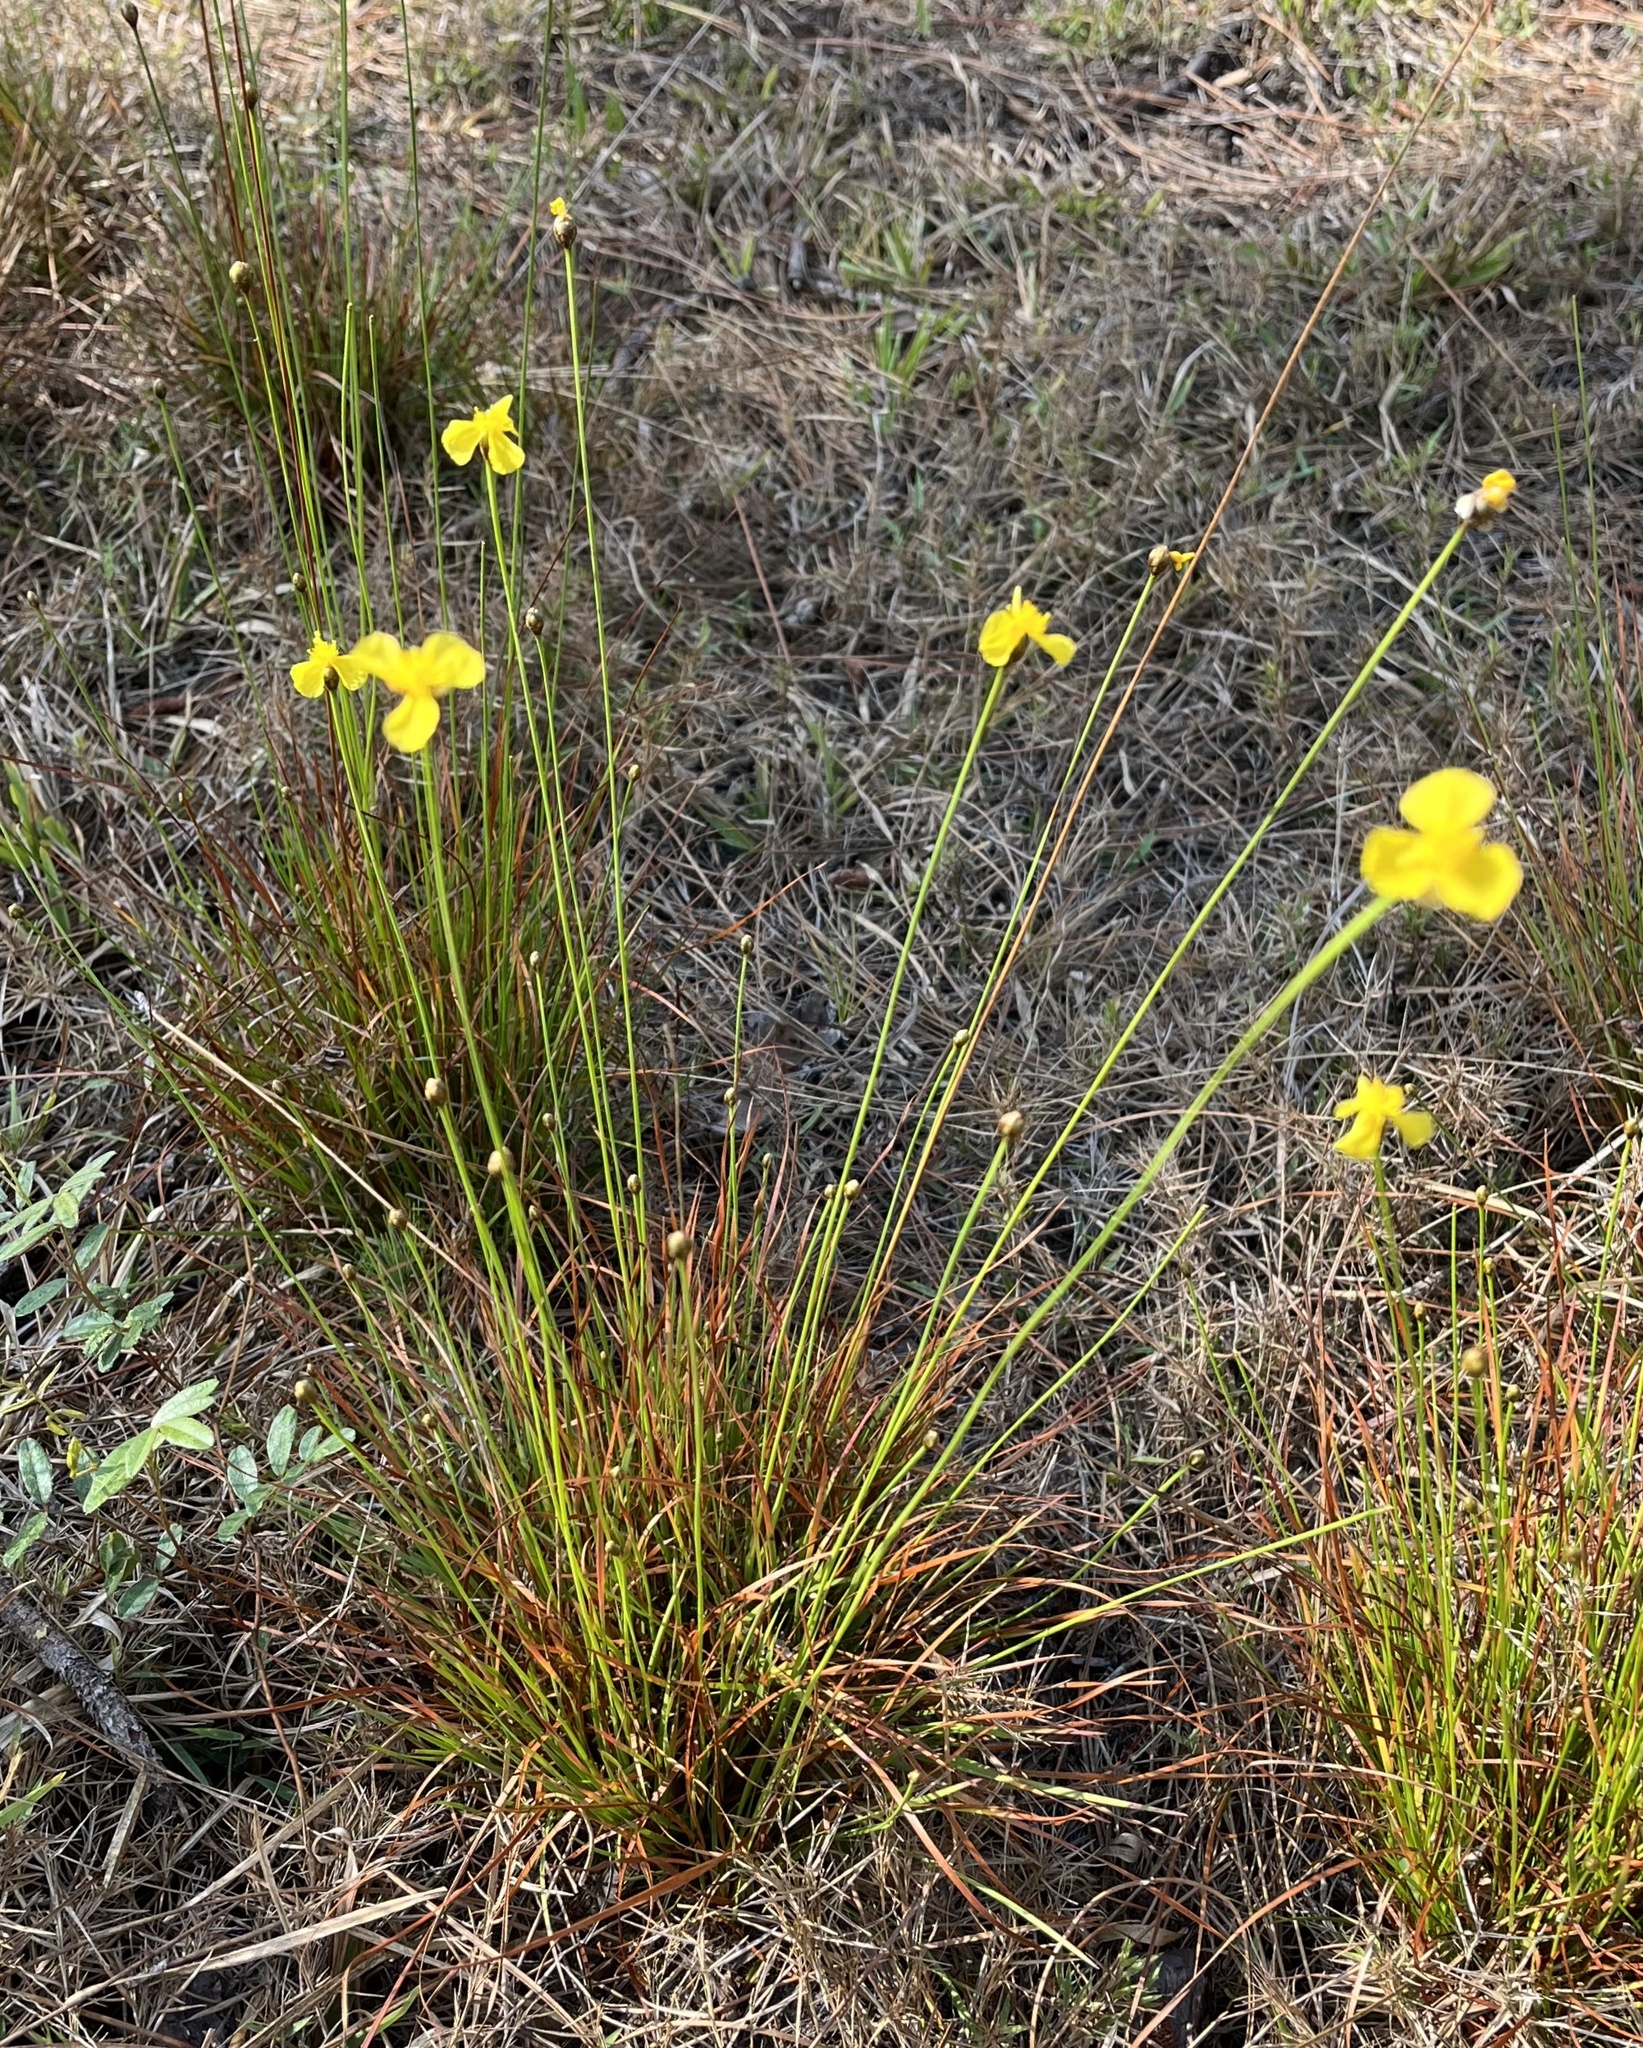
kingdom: Plantae
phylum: Tracheophyta
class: Liliopsida
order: Poales
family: Xyridaceae
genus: Xyris
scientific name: Xyris elliottii
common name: Elliot's yelloweyed grass
